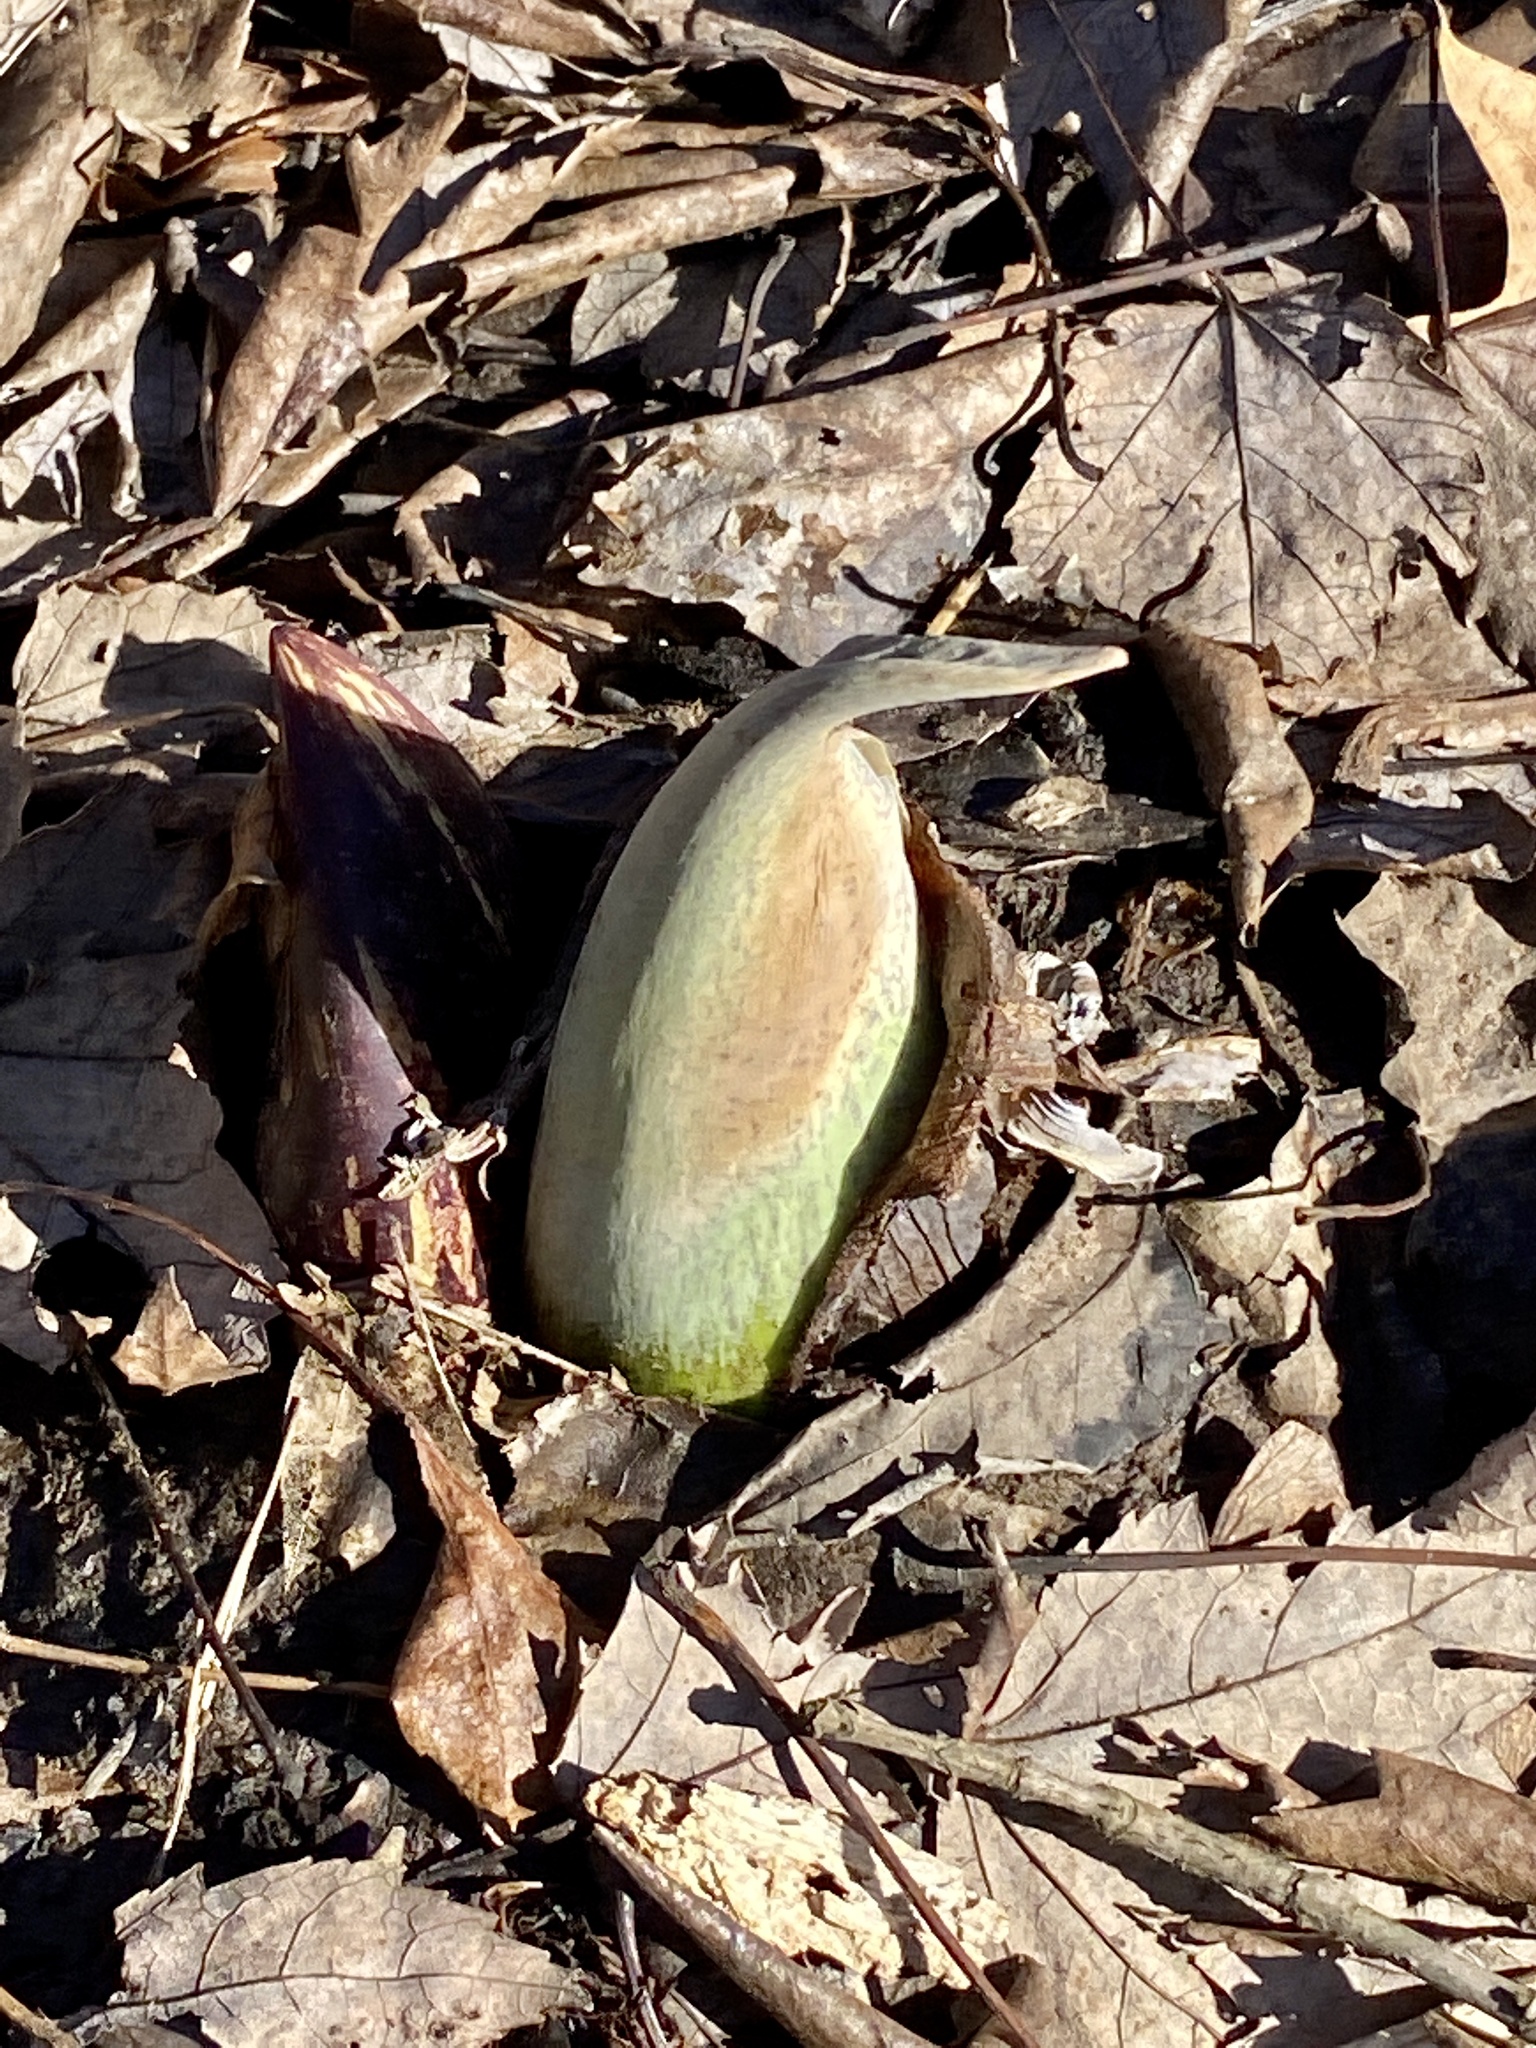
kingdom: Plantae
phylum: Tracheophyta
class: Liliopsida
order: Alismatales
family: Araceae
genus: Symplocarpus
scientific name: Symplocarpus foetidus
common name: Eastern skunk cabbage
